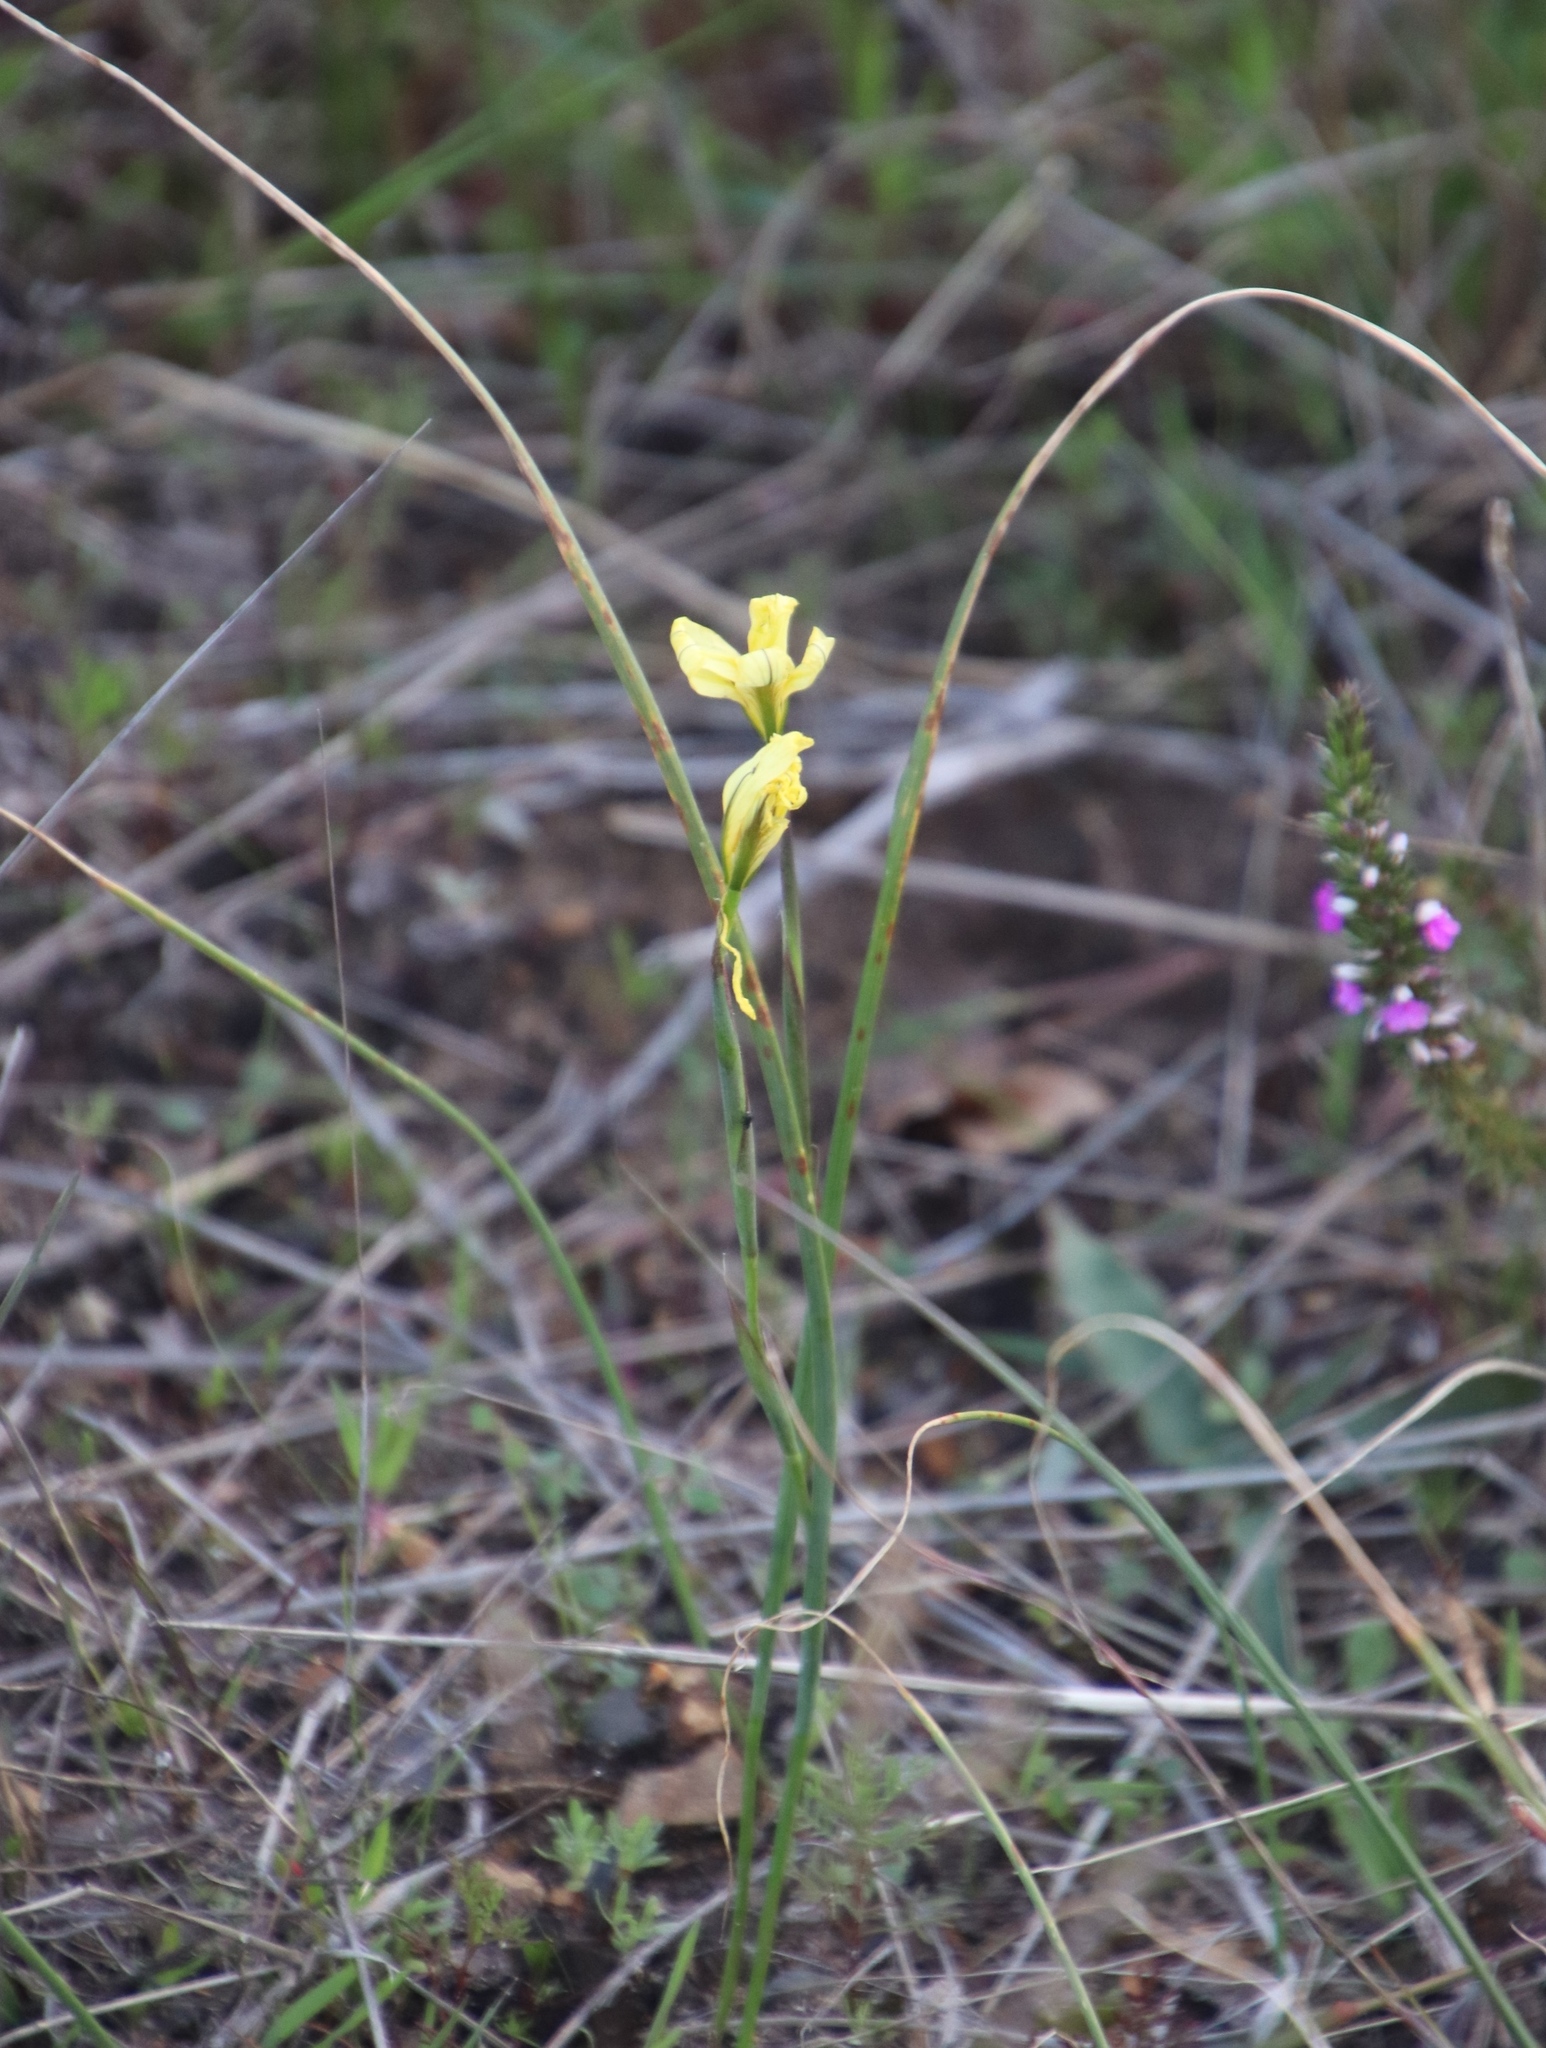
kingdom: Plantae
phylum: Tracheophyta
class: Liliopsida
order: Asparagales
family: Iridaceae
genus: Moraea
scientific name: Moraea collina
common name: Cape-tulip
